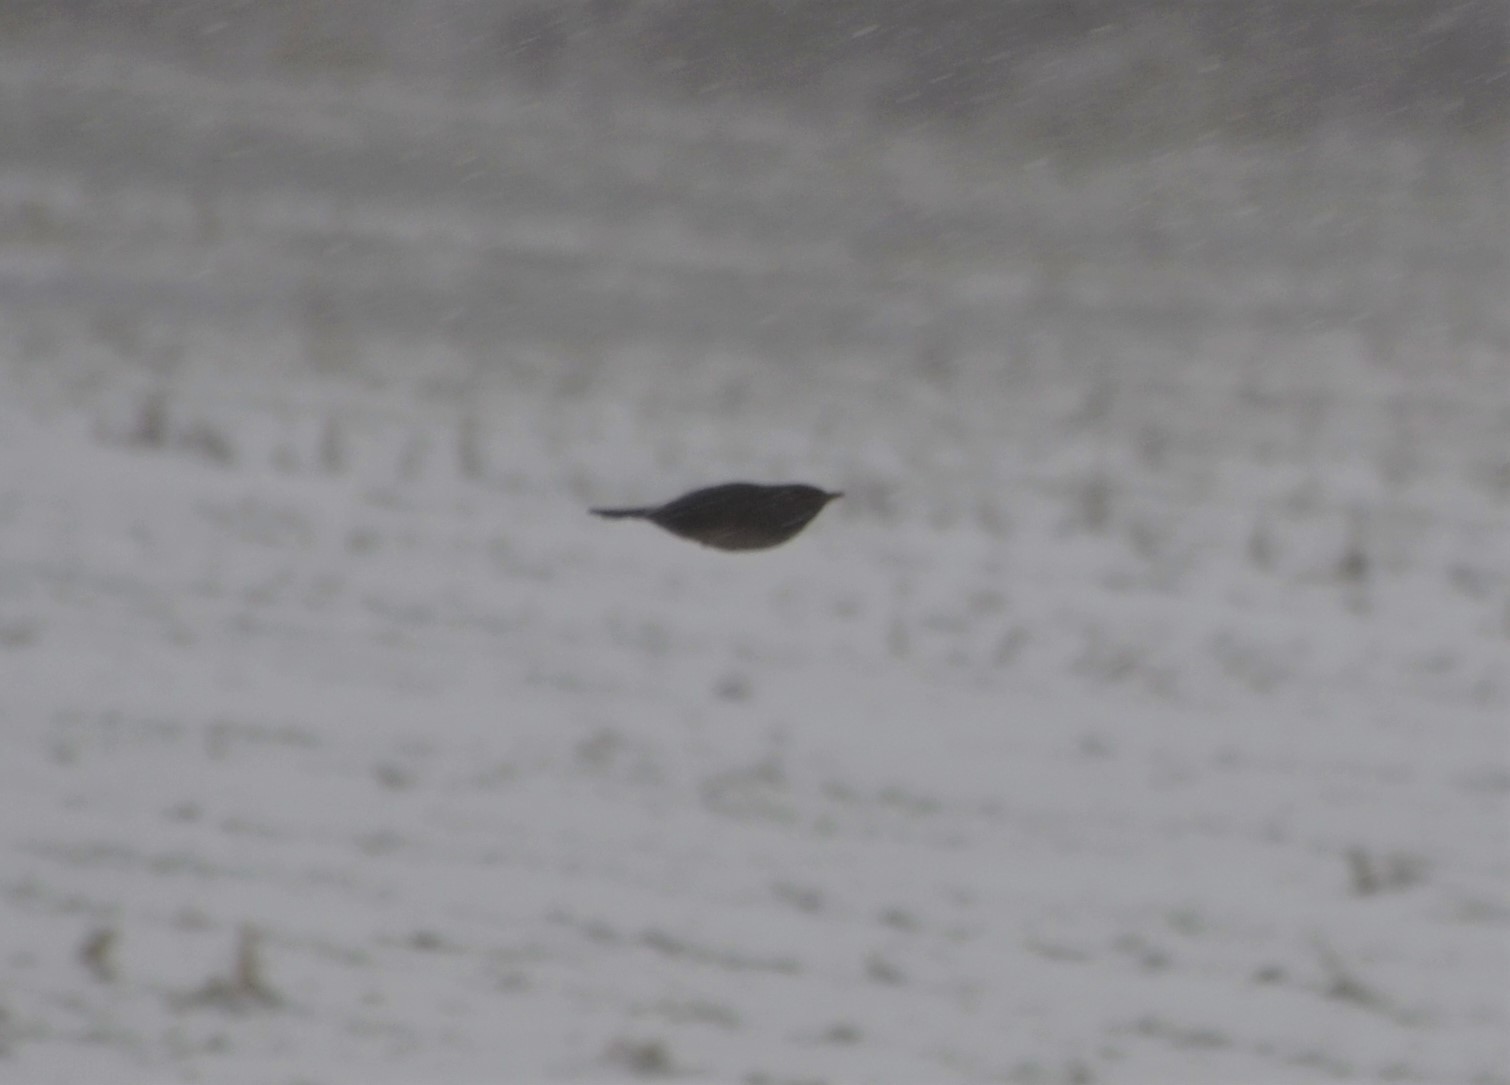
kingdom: Animalia
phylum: Chordata
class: Aves
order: Passeriformes
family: Turdidae
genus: Turdus
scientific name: Turdus merula
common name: Common blackbird
